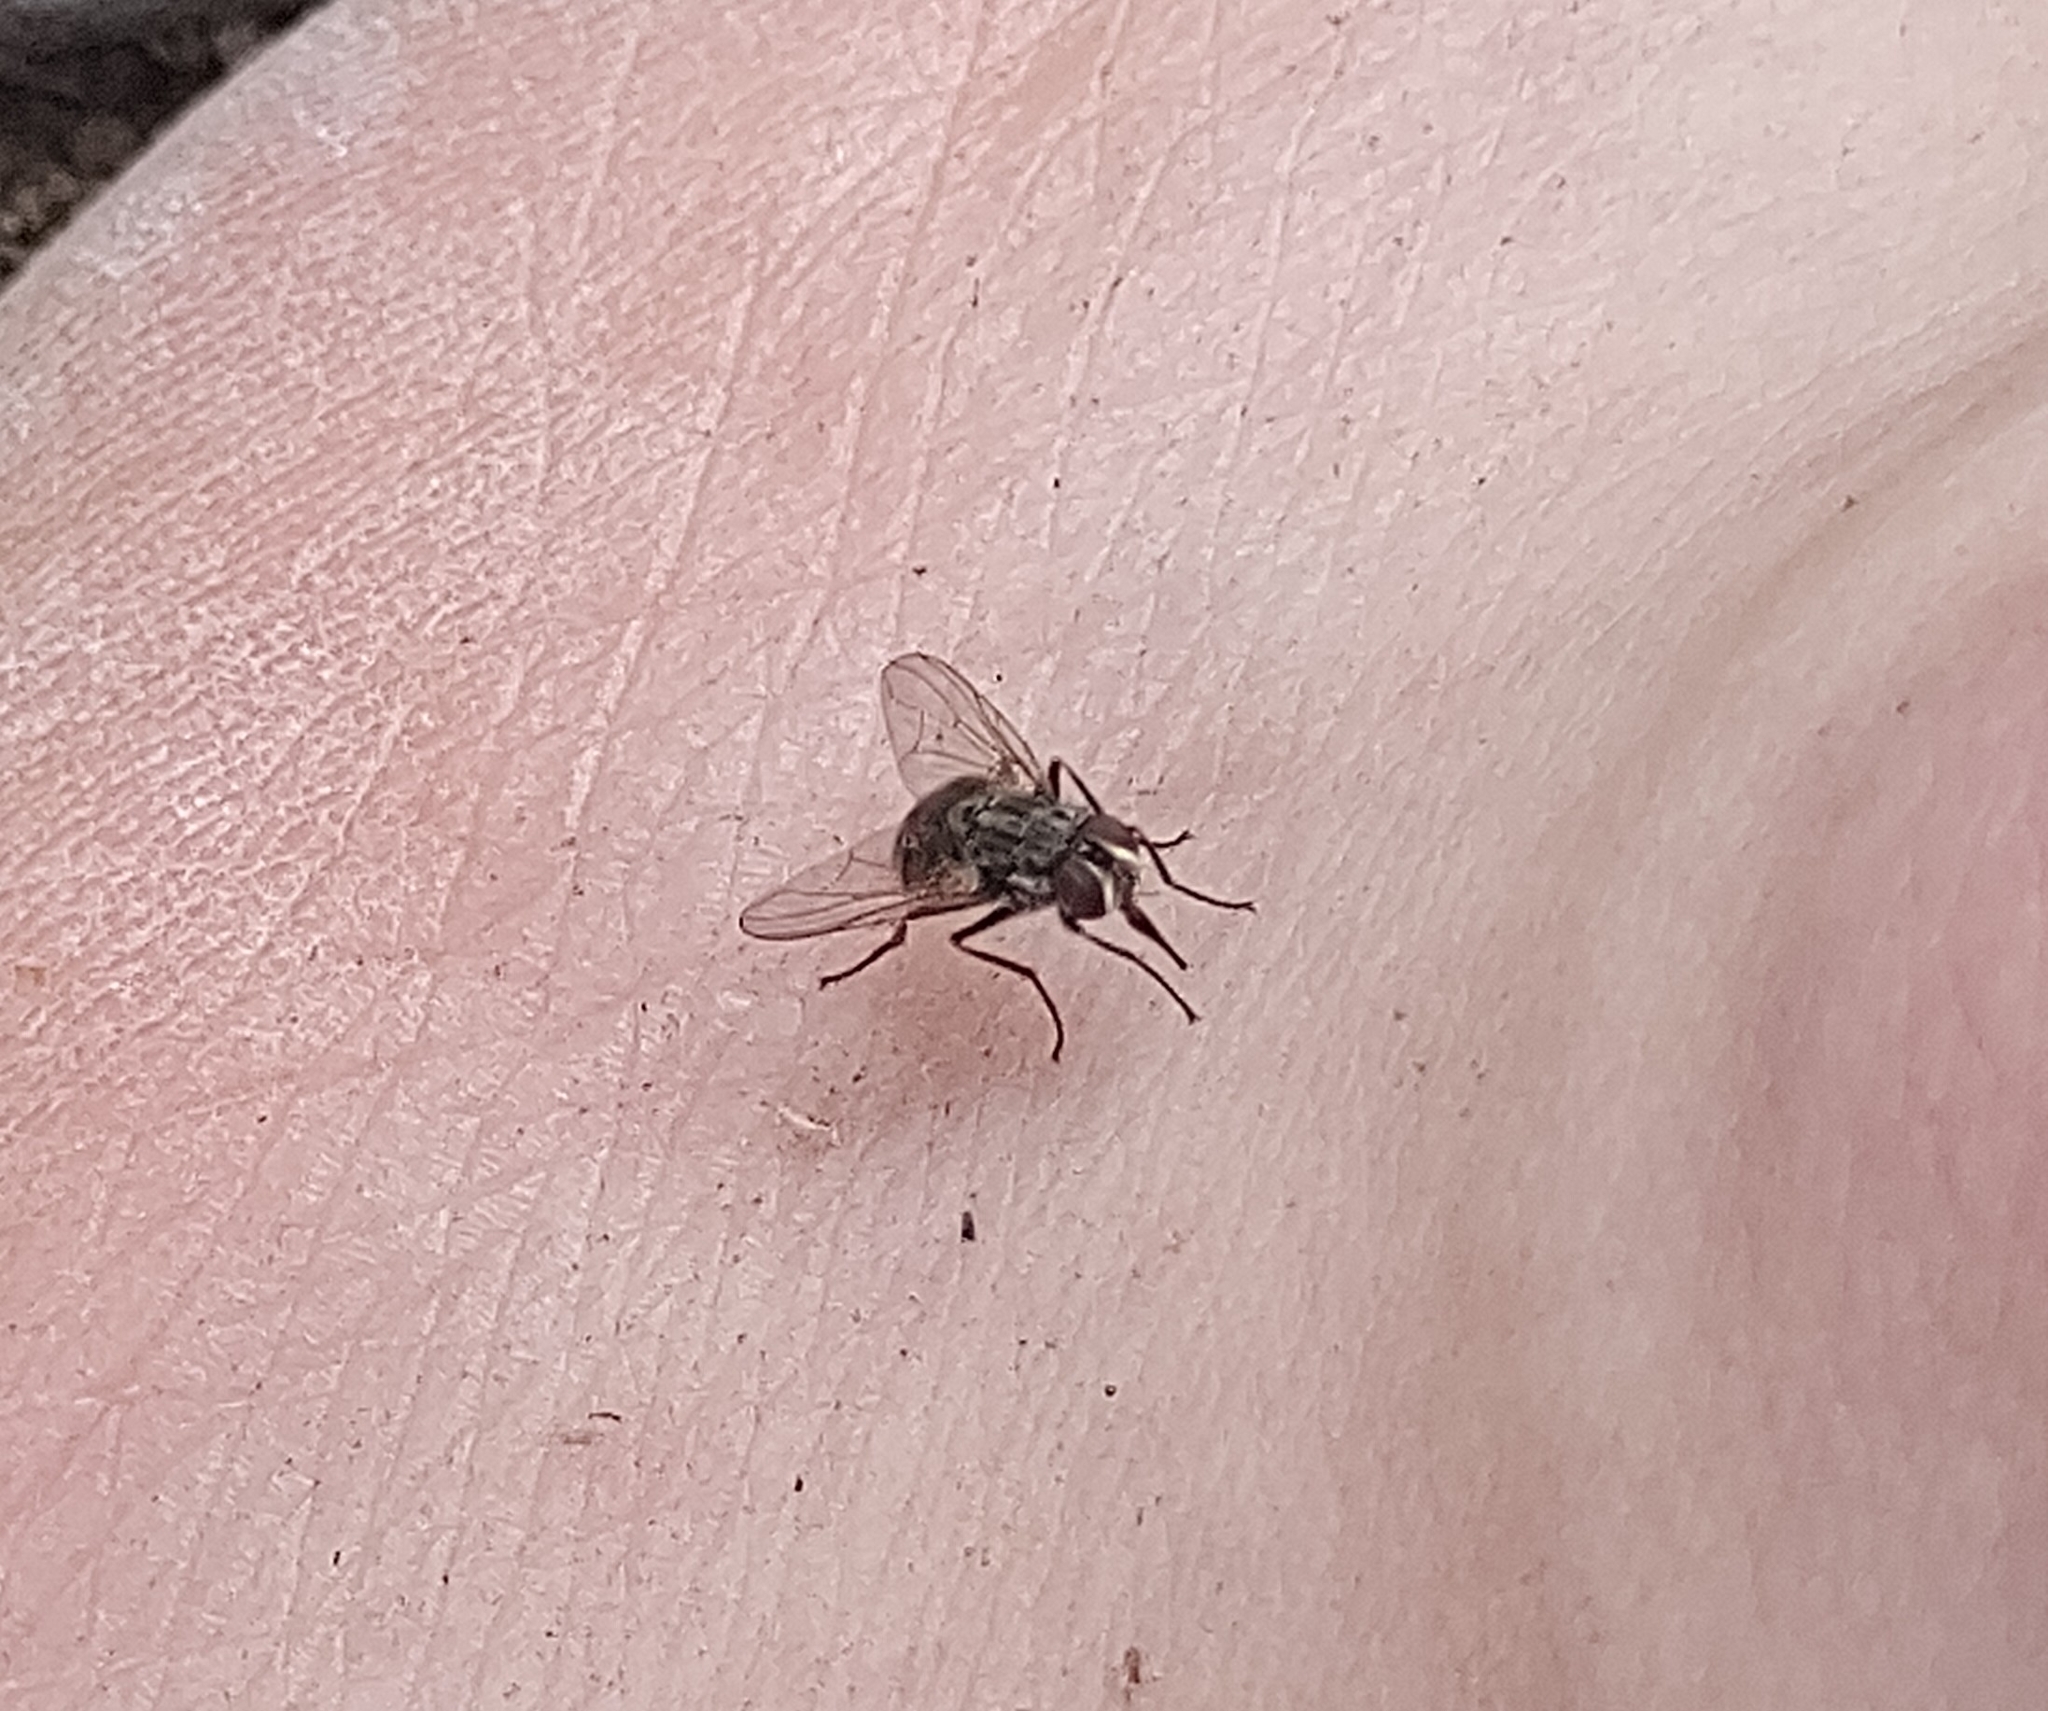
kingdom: Animalia
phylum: Arthropoda
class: Insecta
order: Diptera
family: Muscidae
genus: Stomoxys
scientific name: Stomoxys calcitrans
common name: Stable fly
